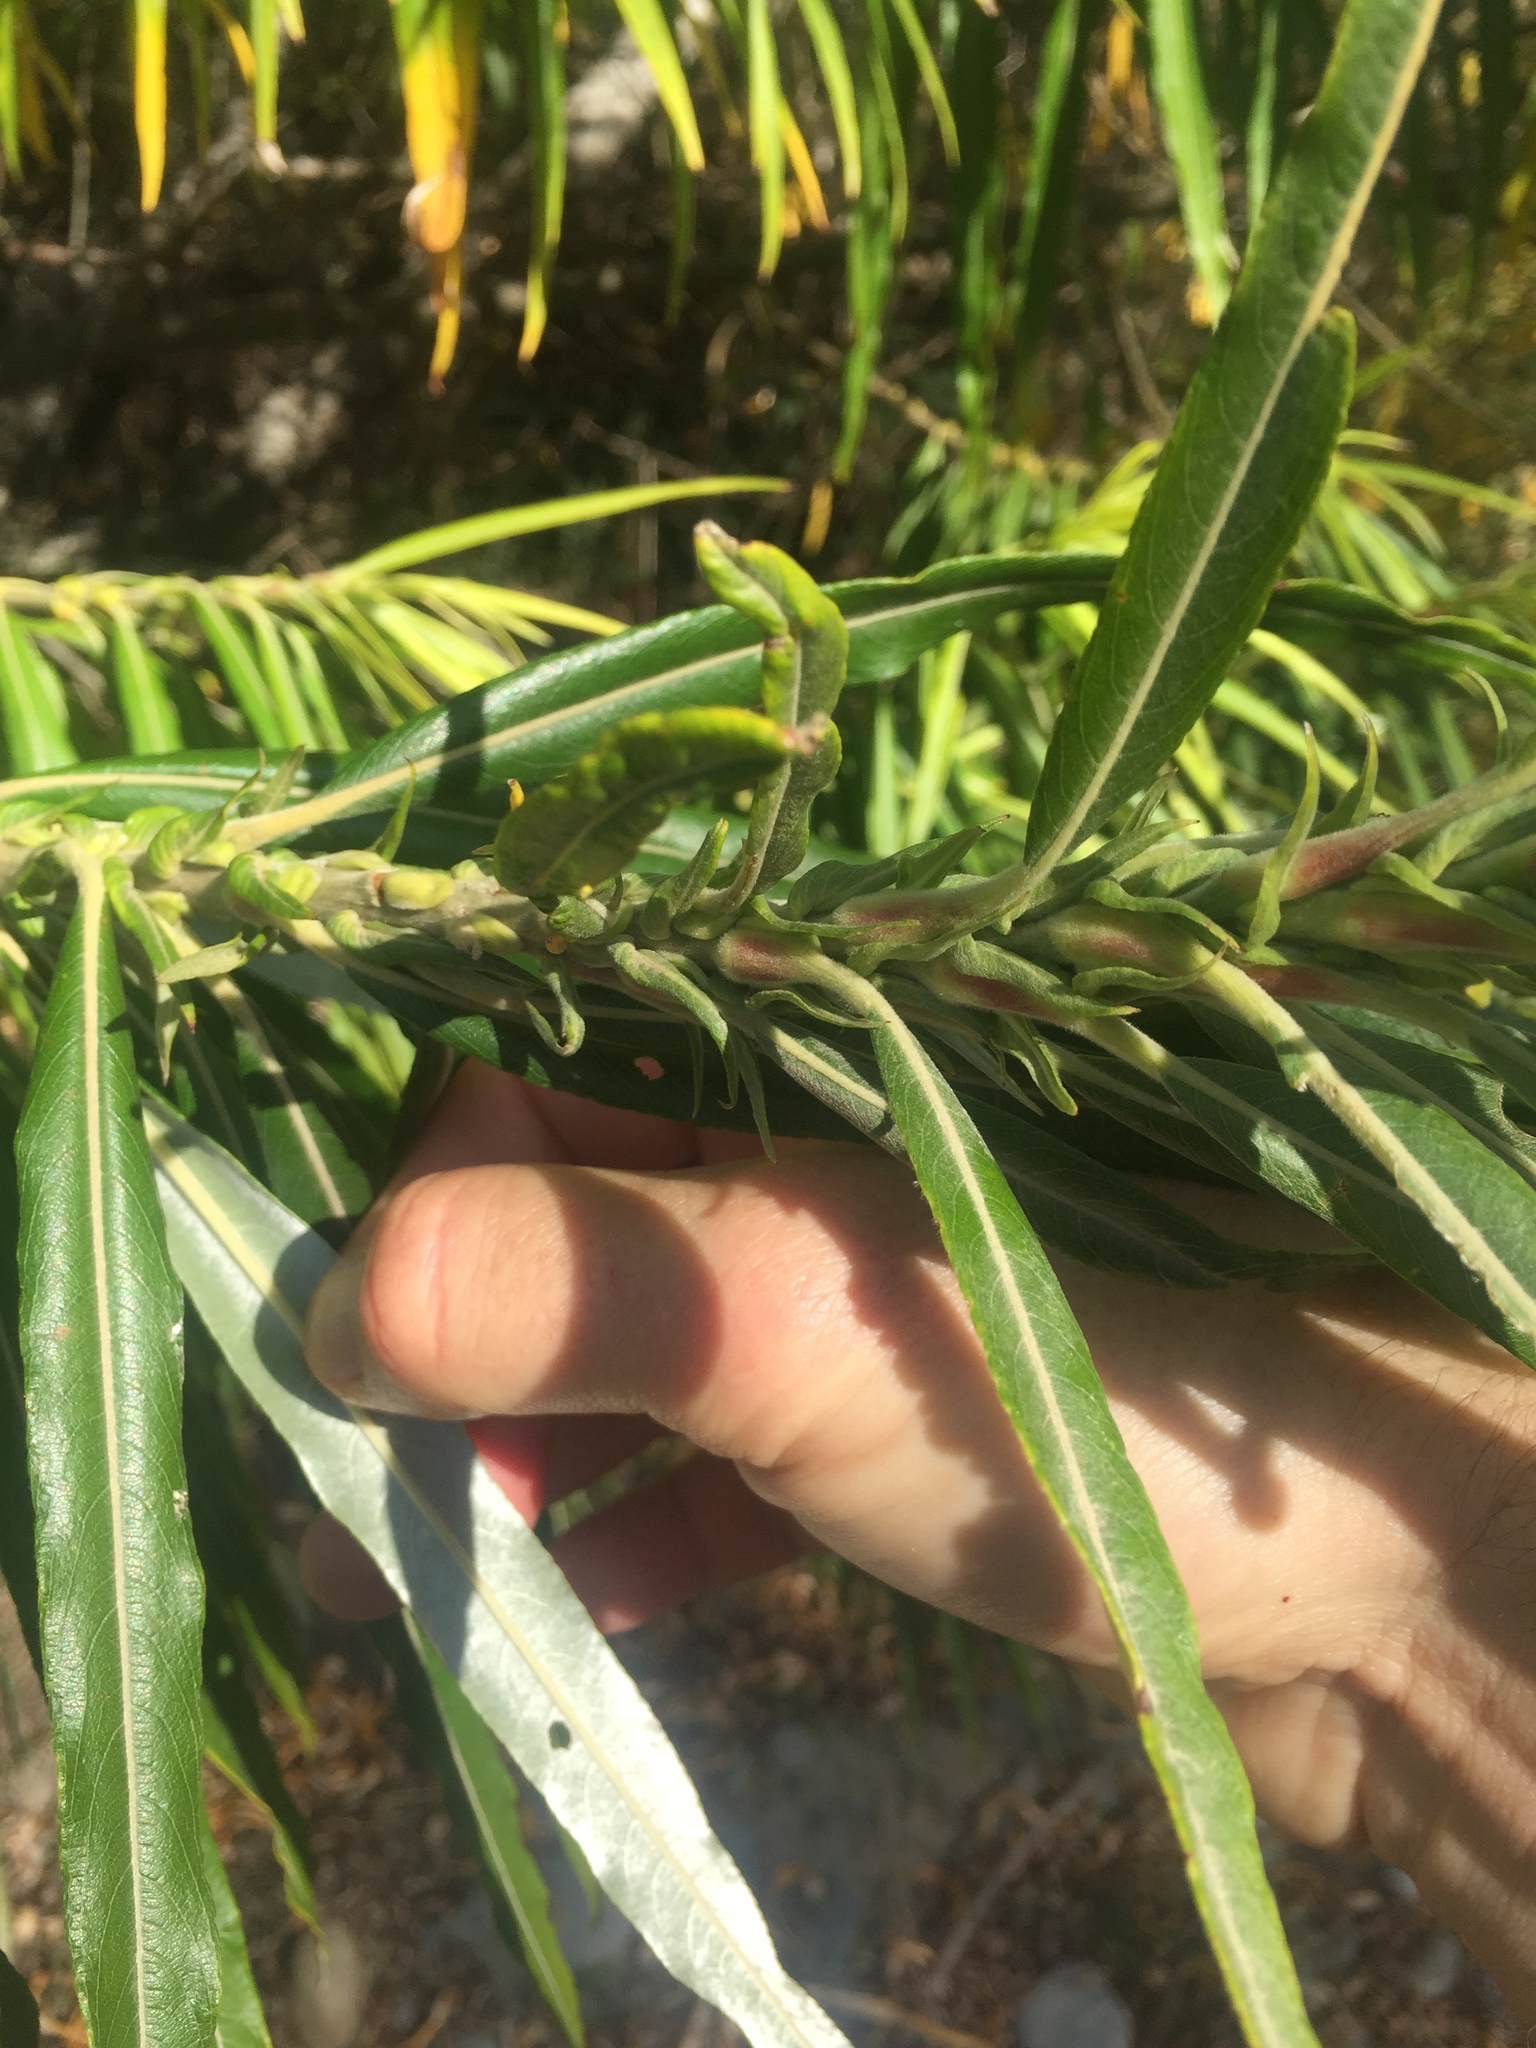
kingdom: Plantae
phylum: Tracheophyta
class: Magnoliopsida
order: Malpighiales
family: Salicaceae
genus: Salix
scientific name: Salix viminalis
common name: Osier
